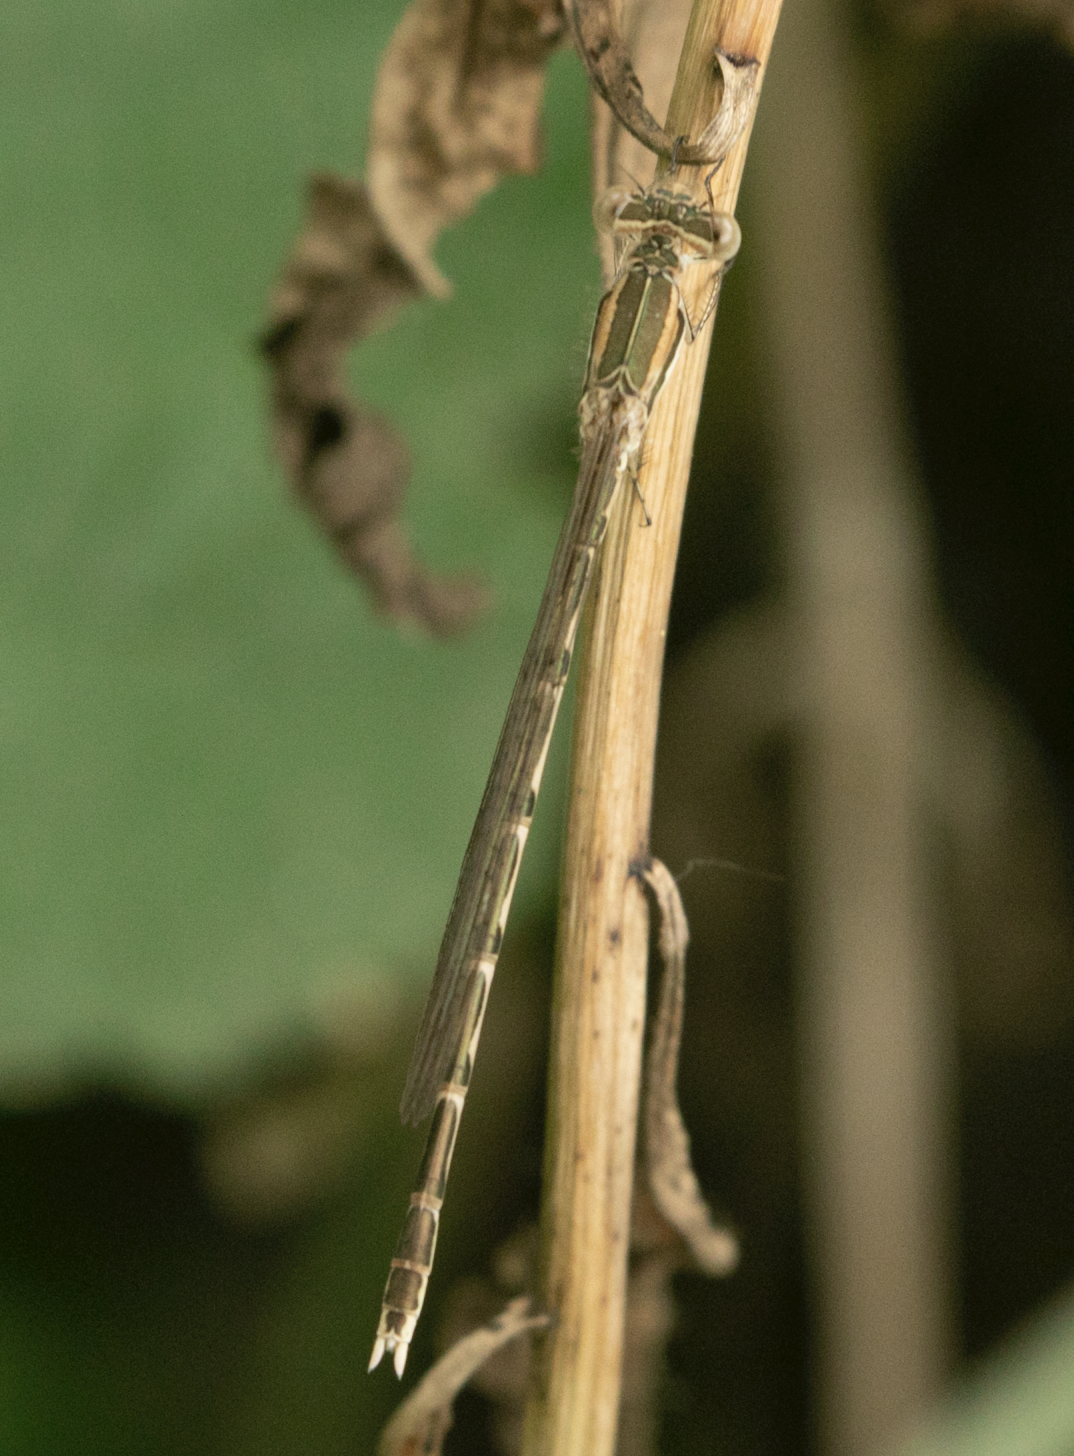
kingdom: Animalia
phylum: Arthropoda
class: Insecta
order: Odonata
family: Lestidae
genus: Sympecma
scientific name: Sympecma fusca
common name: Common winter damsel
